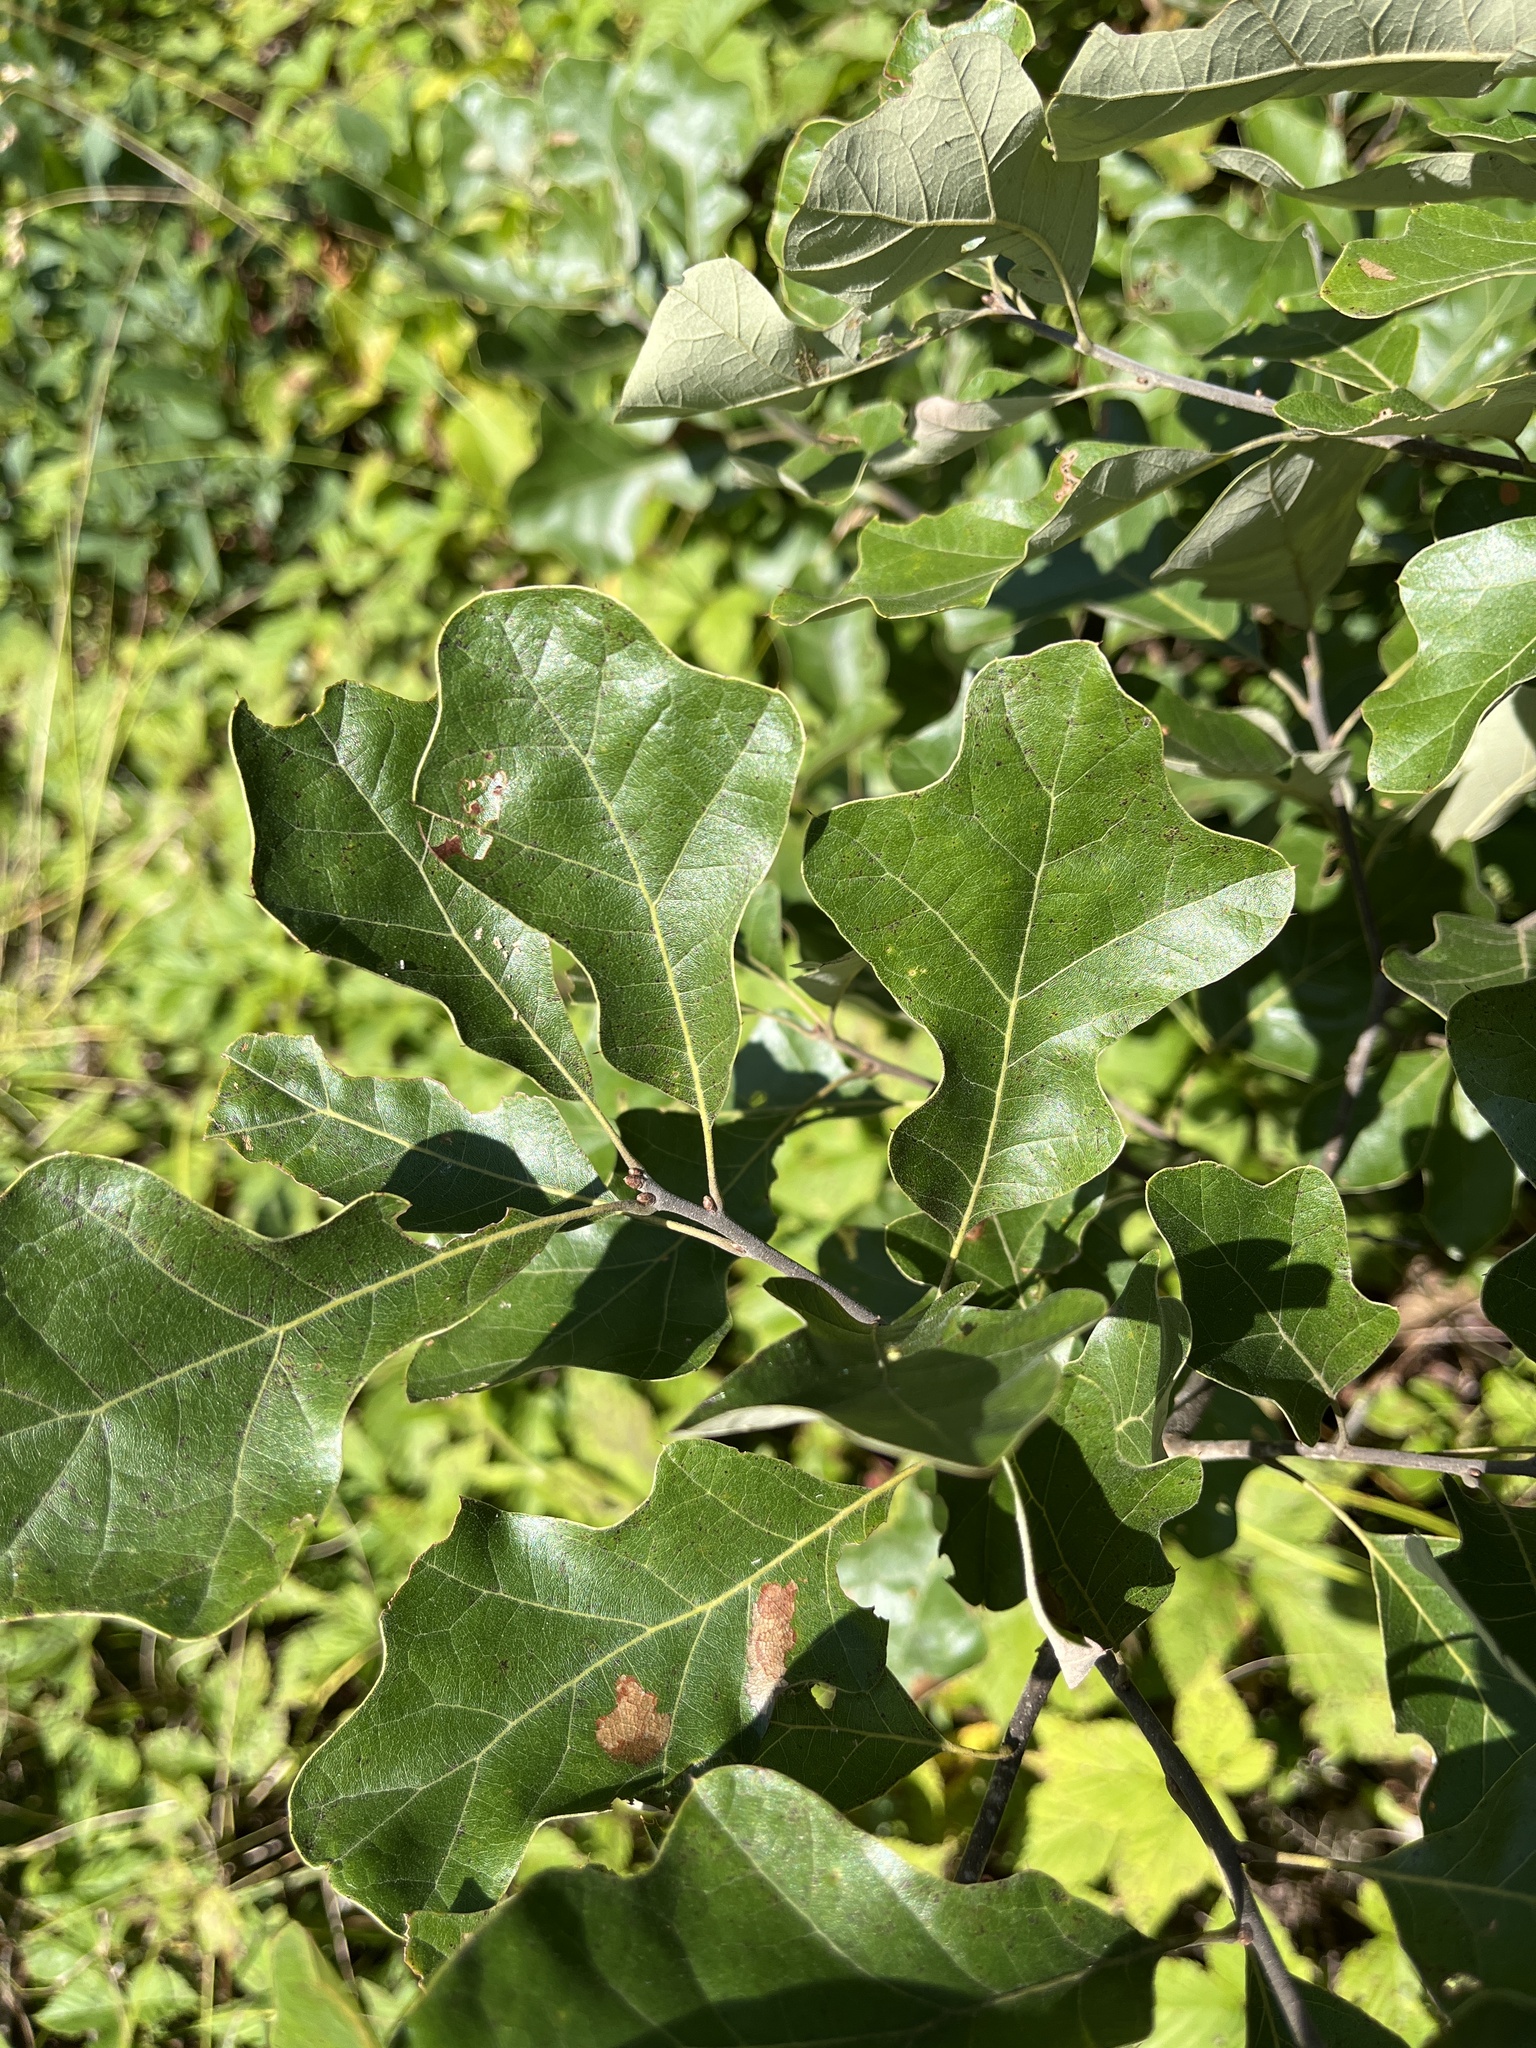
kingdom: Plantae
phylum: Tracheophyta
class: Magnoliopsida
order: Fagales
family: Fagaceae
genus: Quercus
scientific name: Quercus ilicifolia
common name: Bear oak
